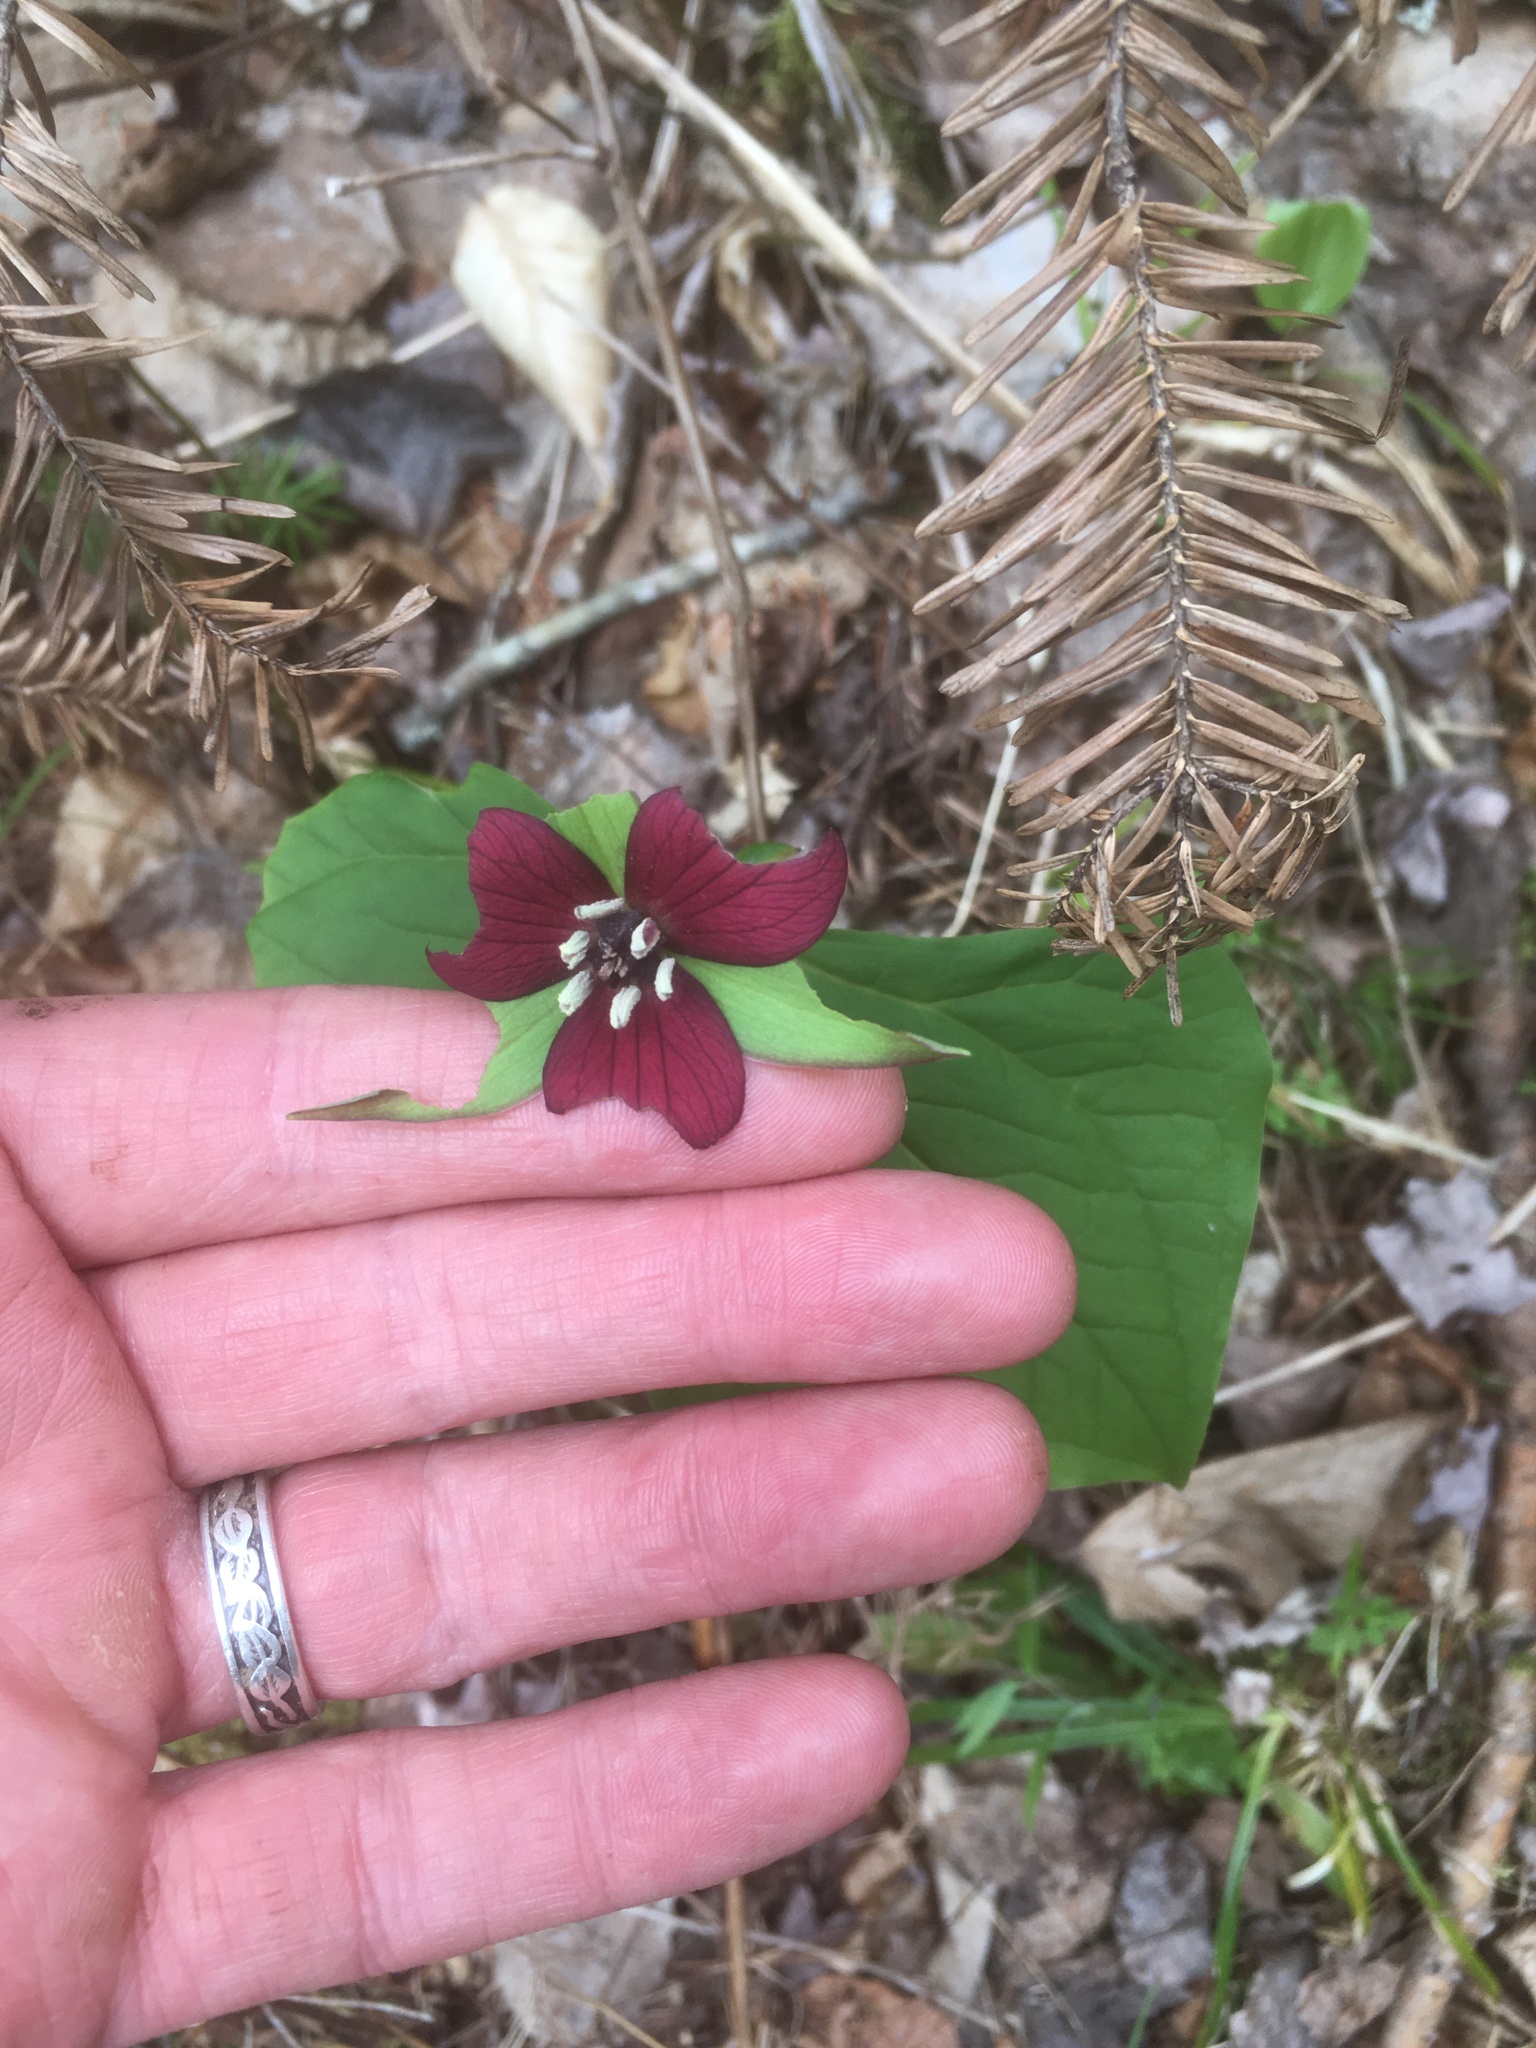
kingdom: Plantae
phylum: Tracheophyta
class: Liliopsida
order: Liliales
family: Melanthiaceae
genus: Trillium
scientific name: Trillium erectum
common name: Purple trillium
